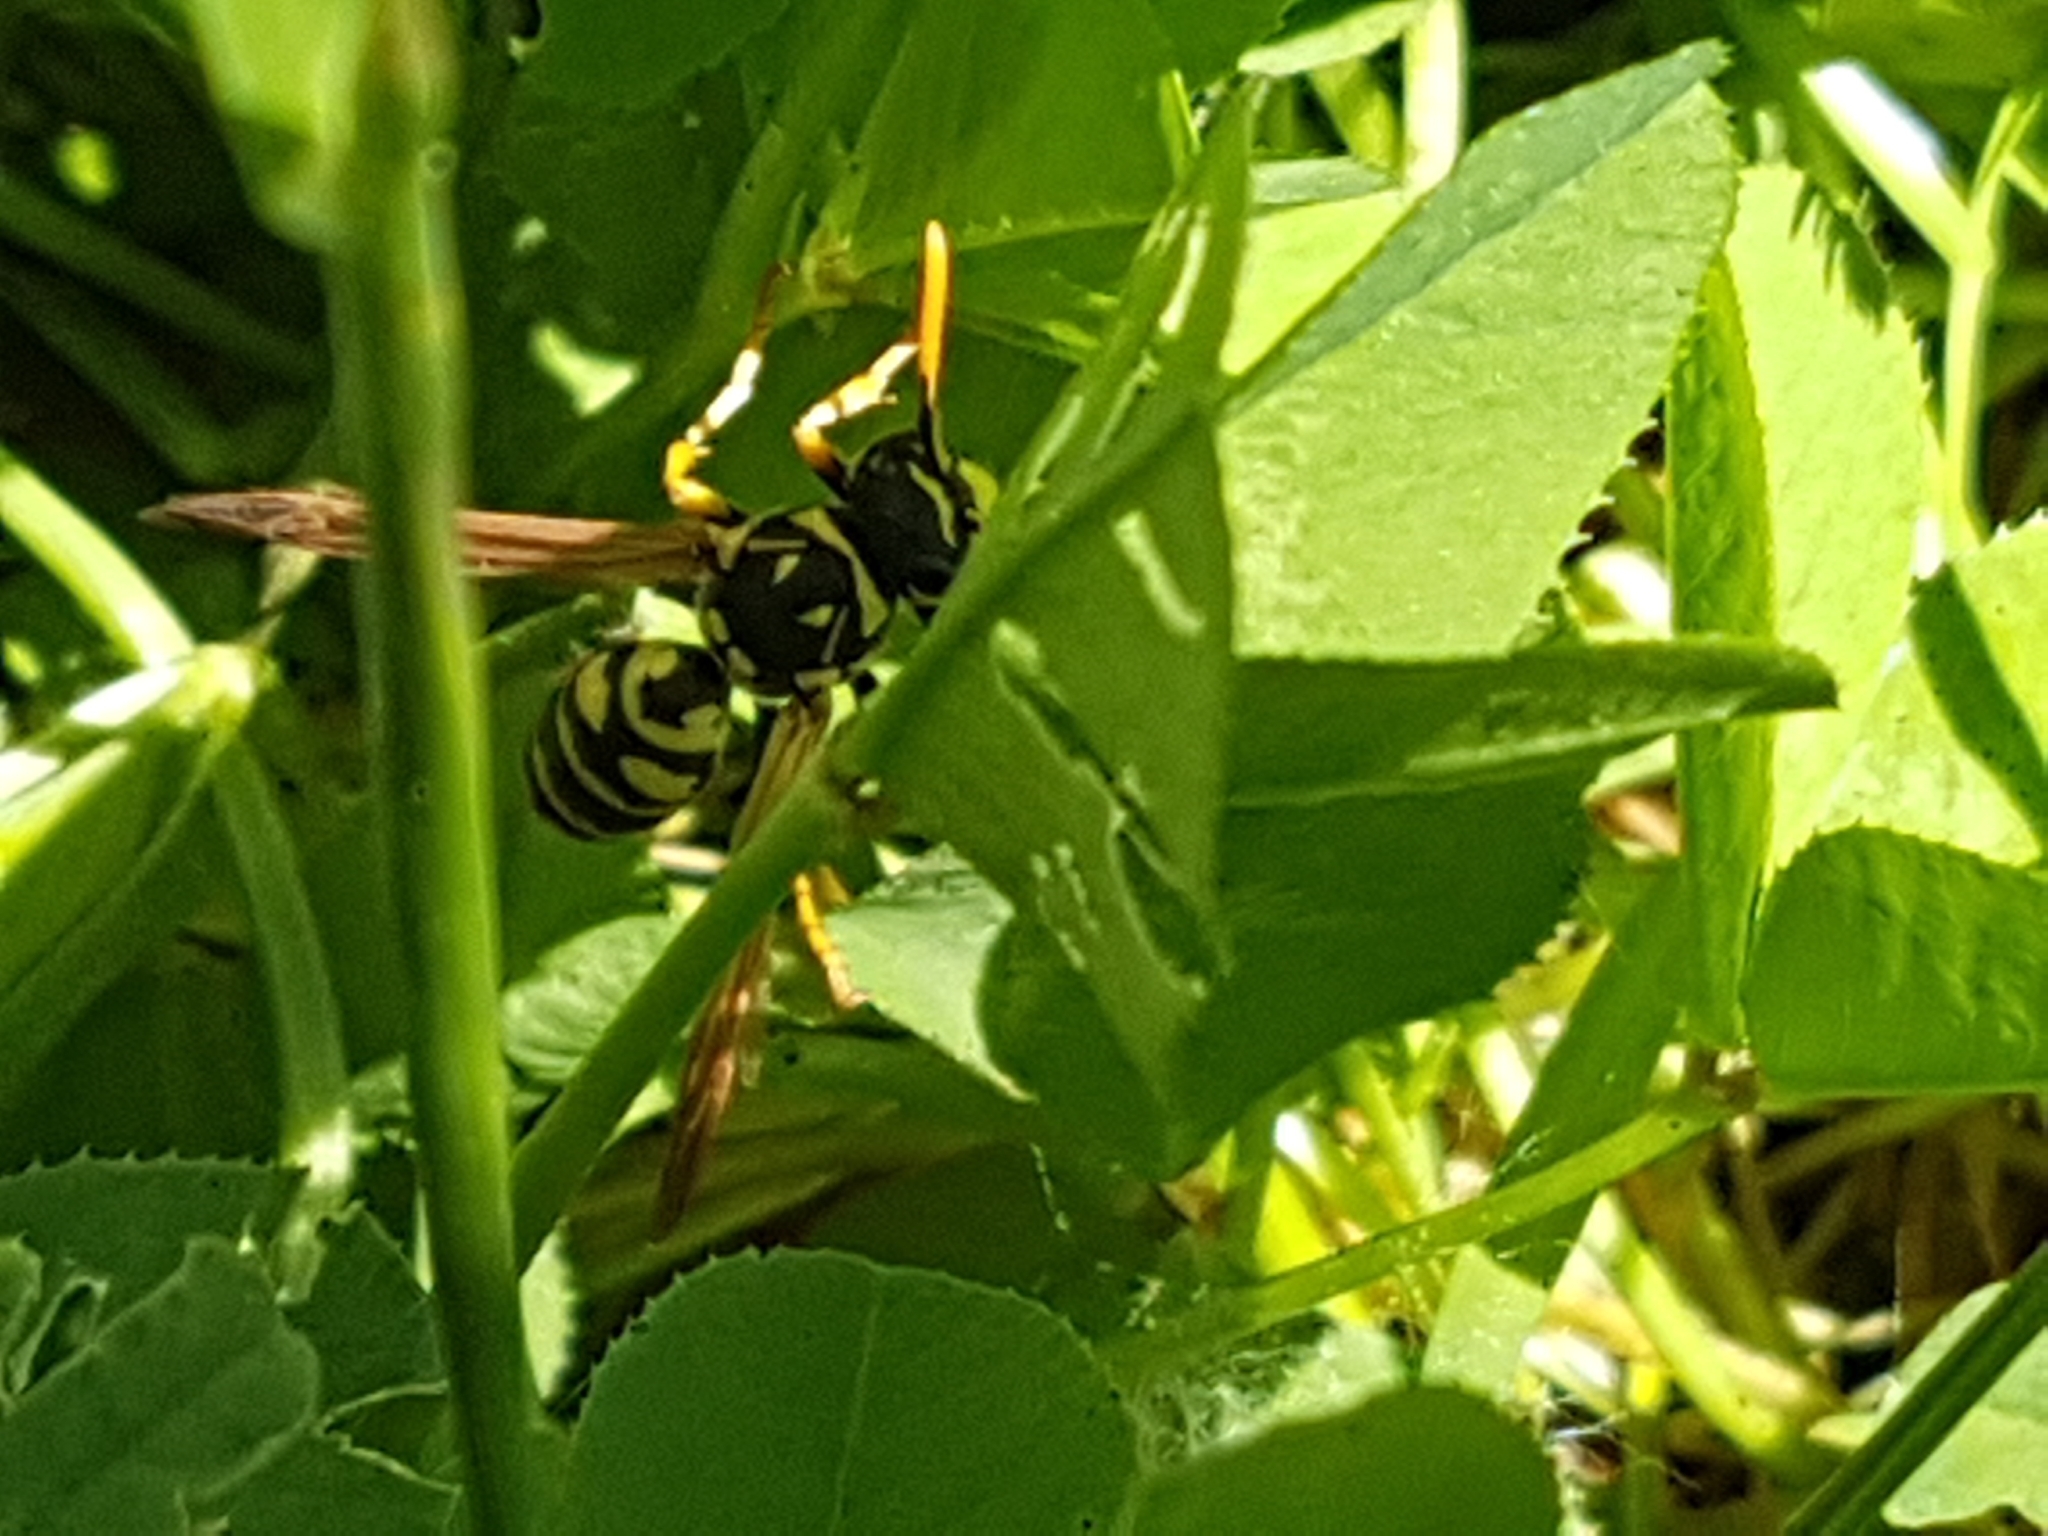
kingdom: Animalia
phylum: Arthropoda
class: Insecta
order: Hymenoptera
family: Eumenidae
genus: Polistes
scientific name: Polistes dominula
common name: Paper wasp
